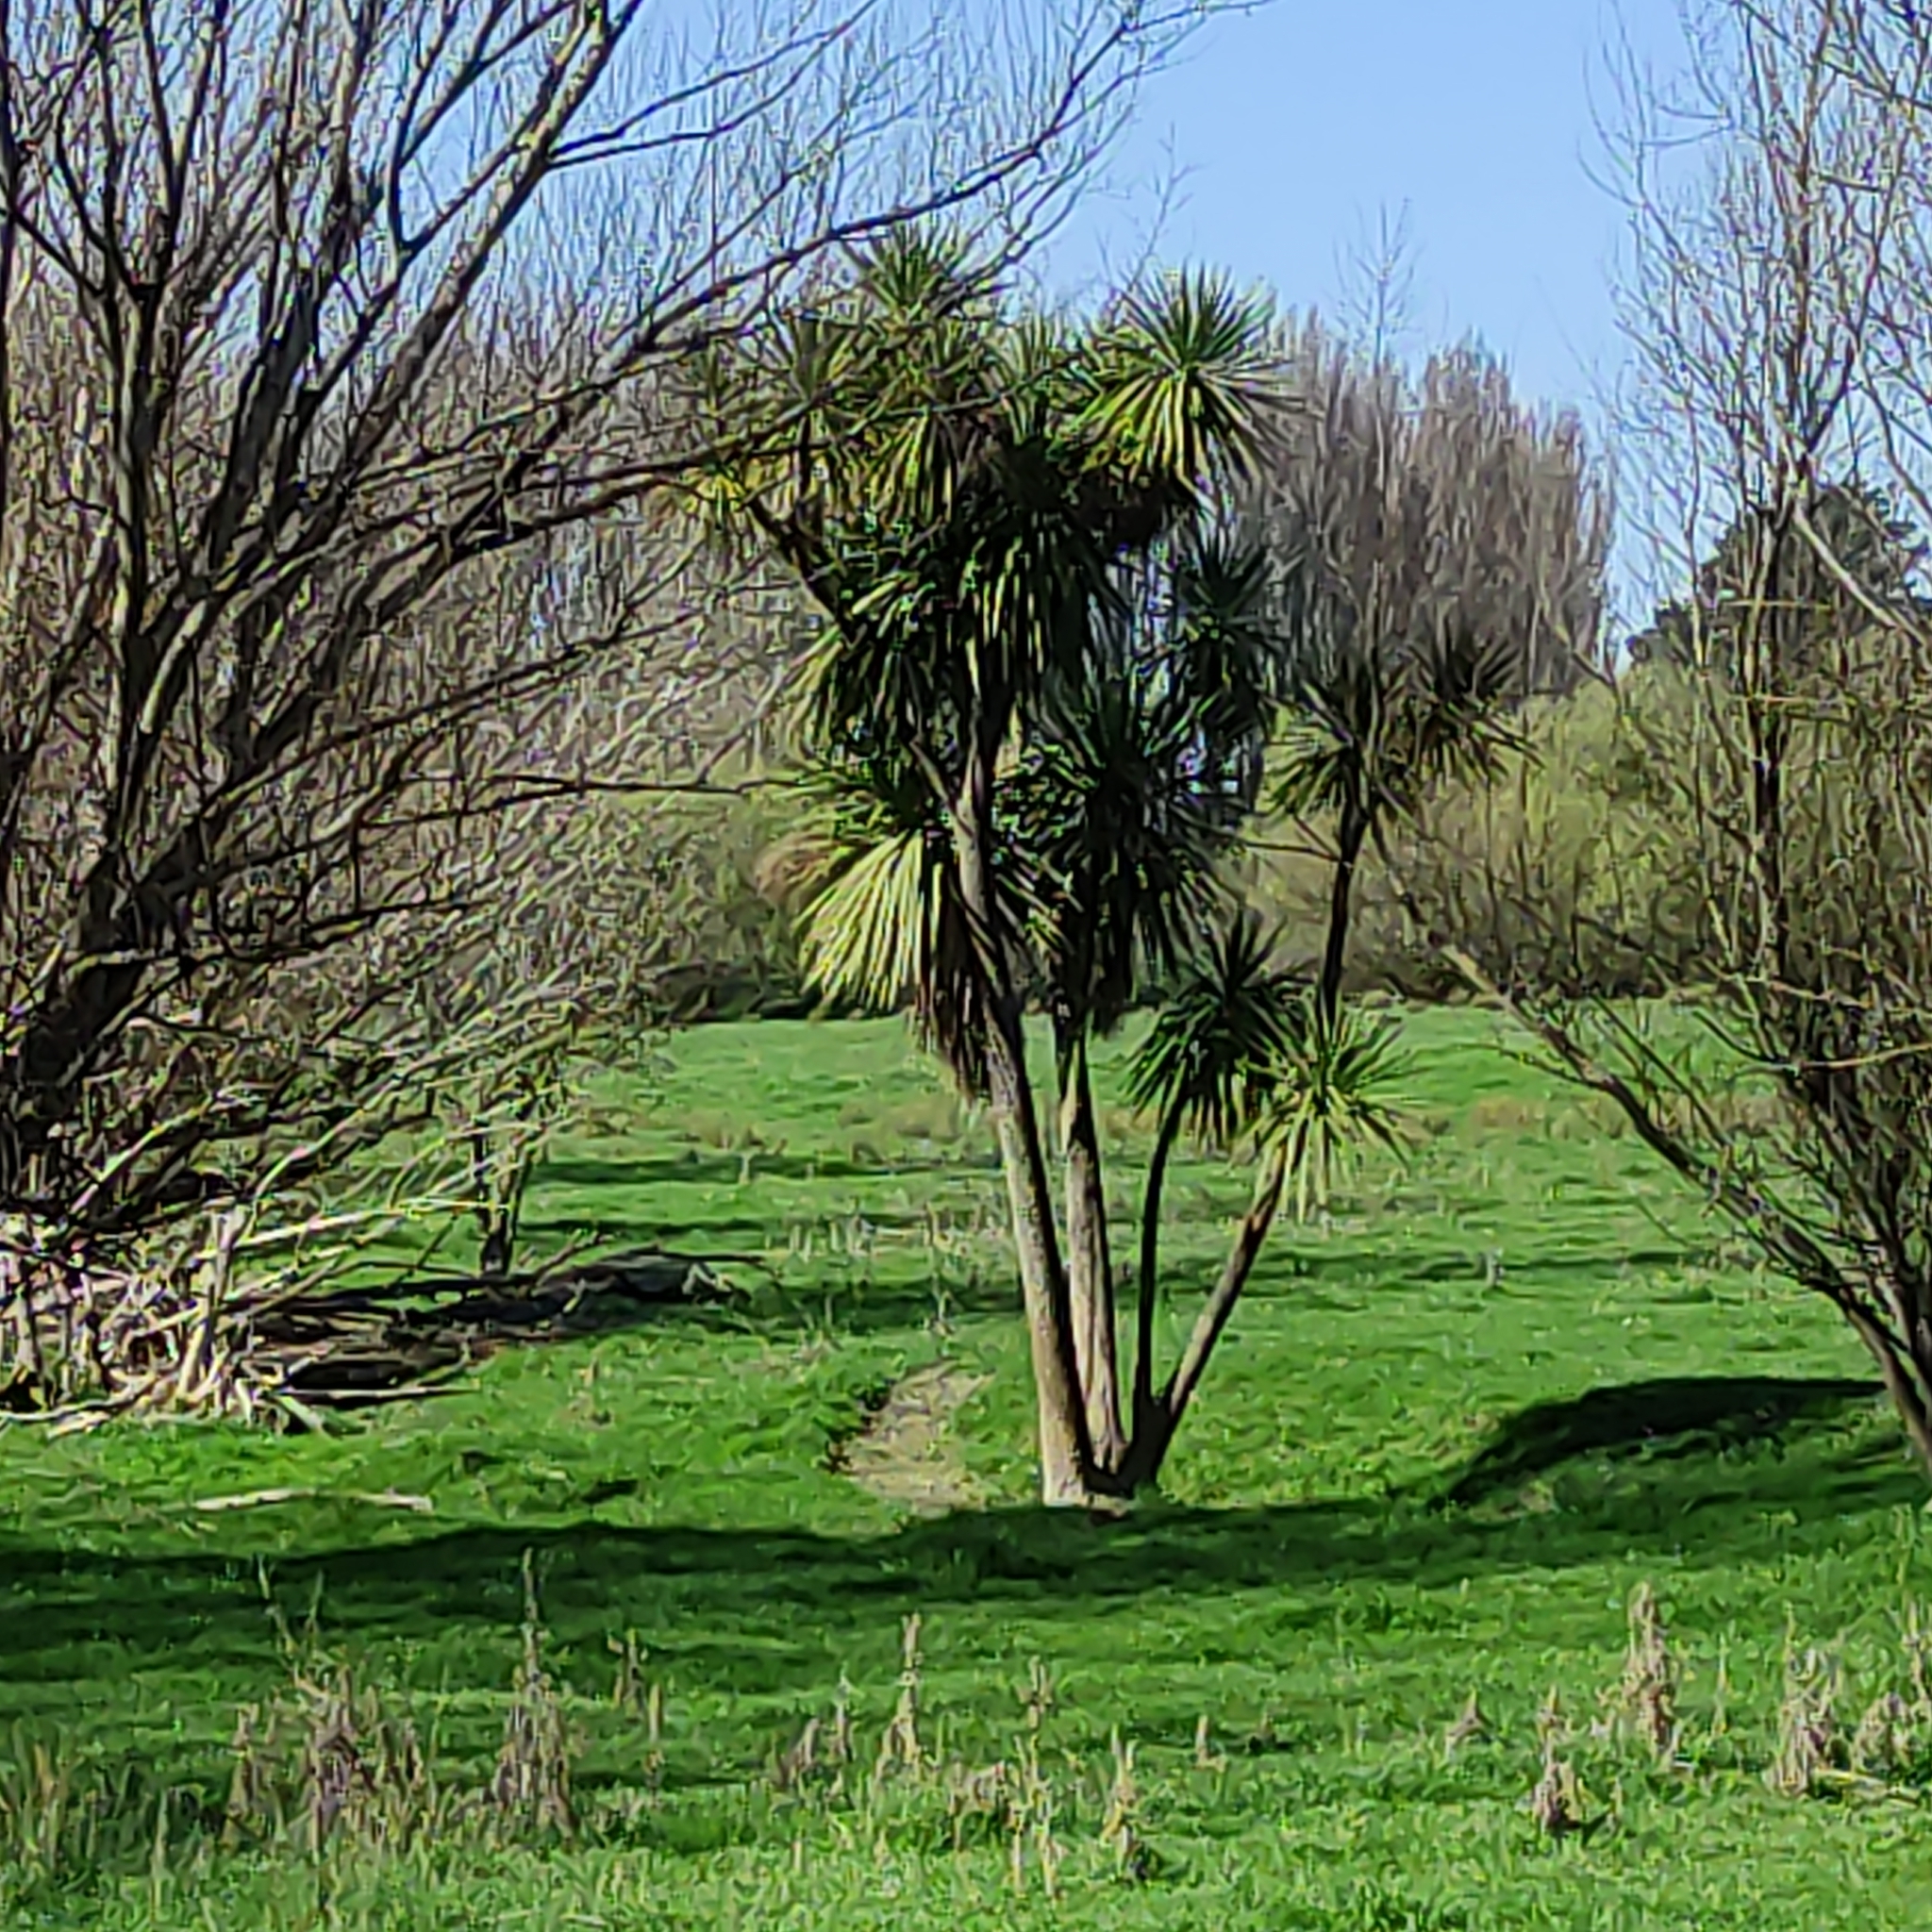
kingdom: Plantae
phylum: Tracheophyta
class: Liliopsida
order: Asparagales
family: Asparagaceae
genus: Cordyline
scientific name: Cordyline australis
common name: Cabbage-palm
